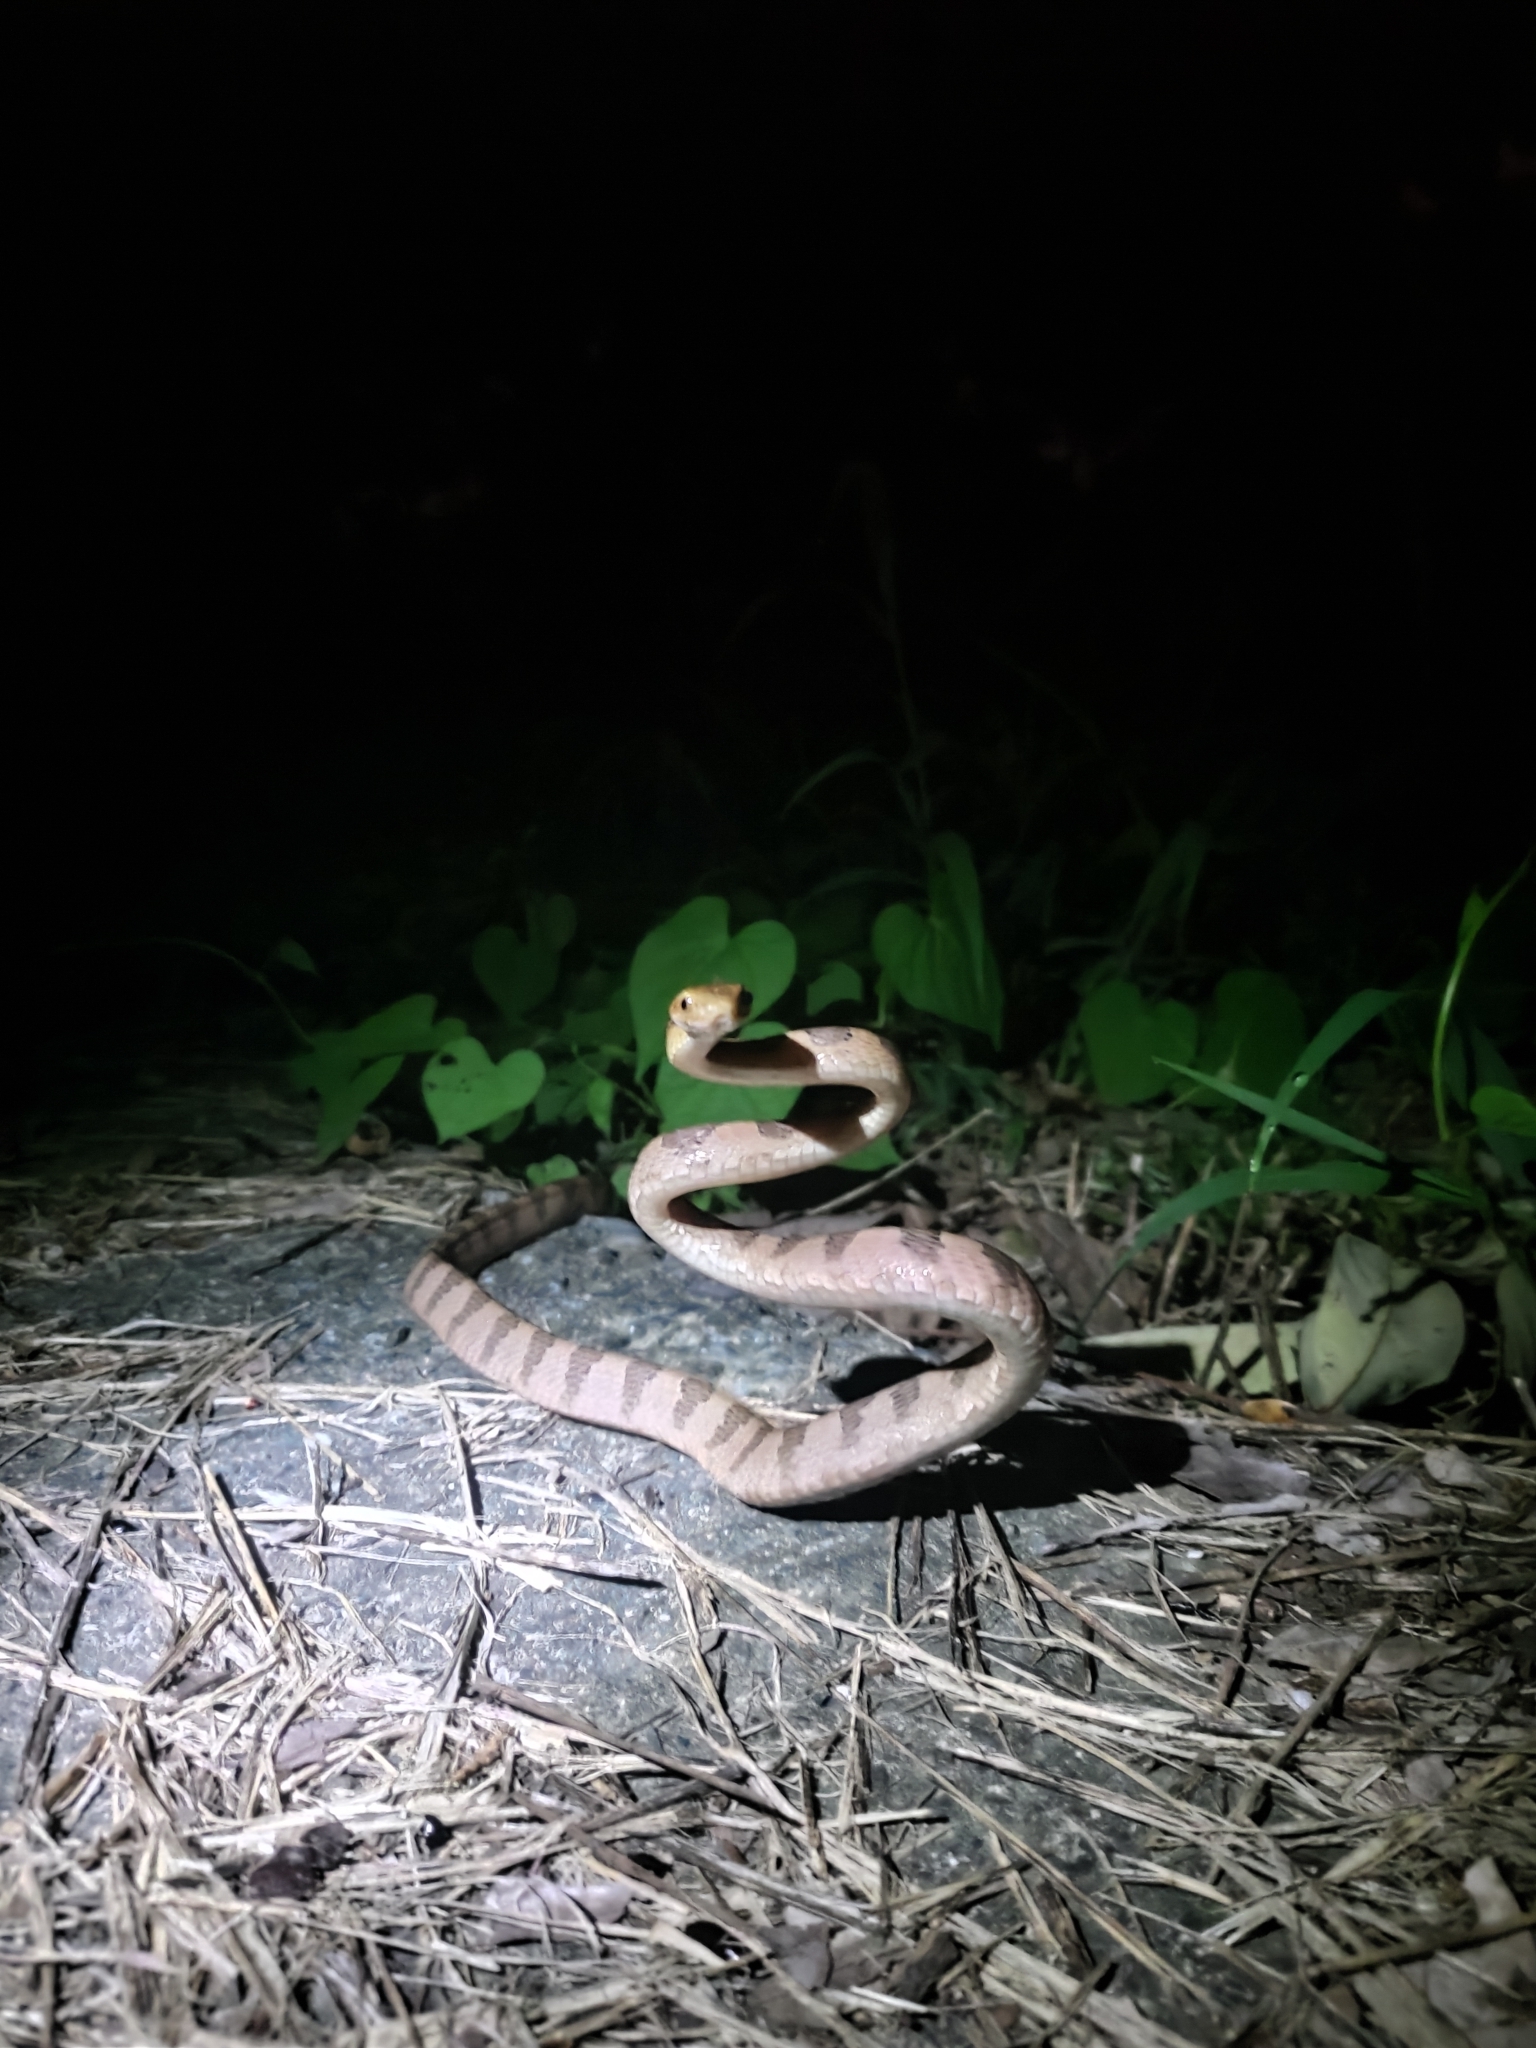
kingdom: Animalia
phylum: Chordata
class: Squamata
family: Colubridae
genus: Boiga
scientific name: Boiga kraepelini
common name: Kelung cat snake
